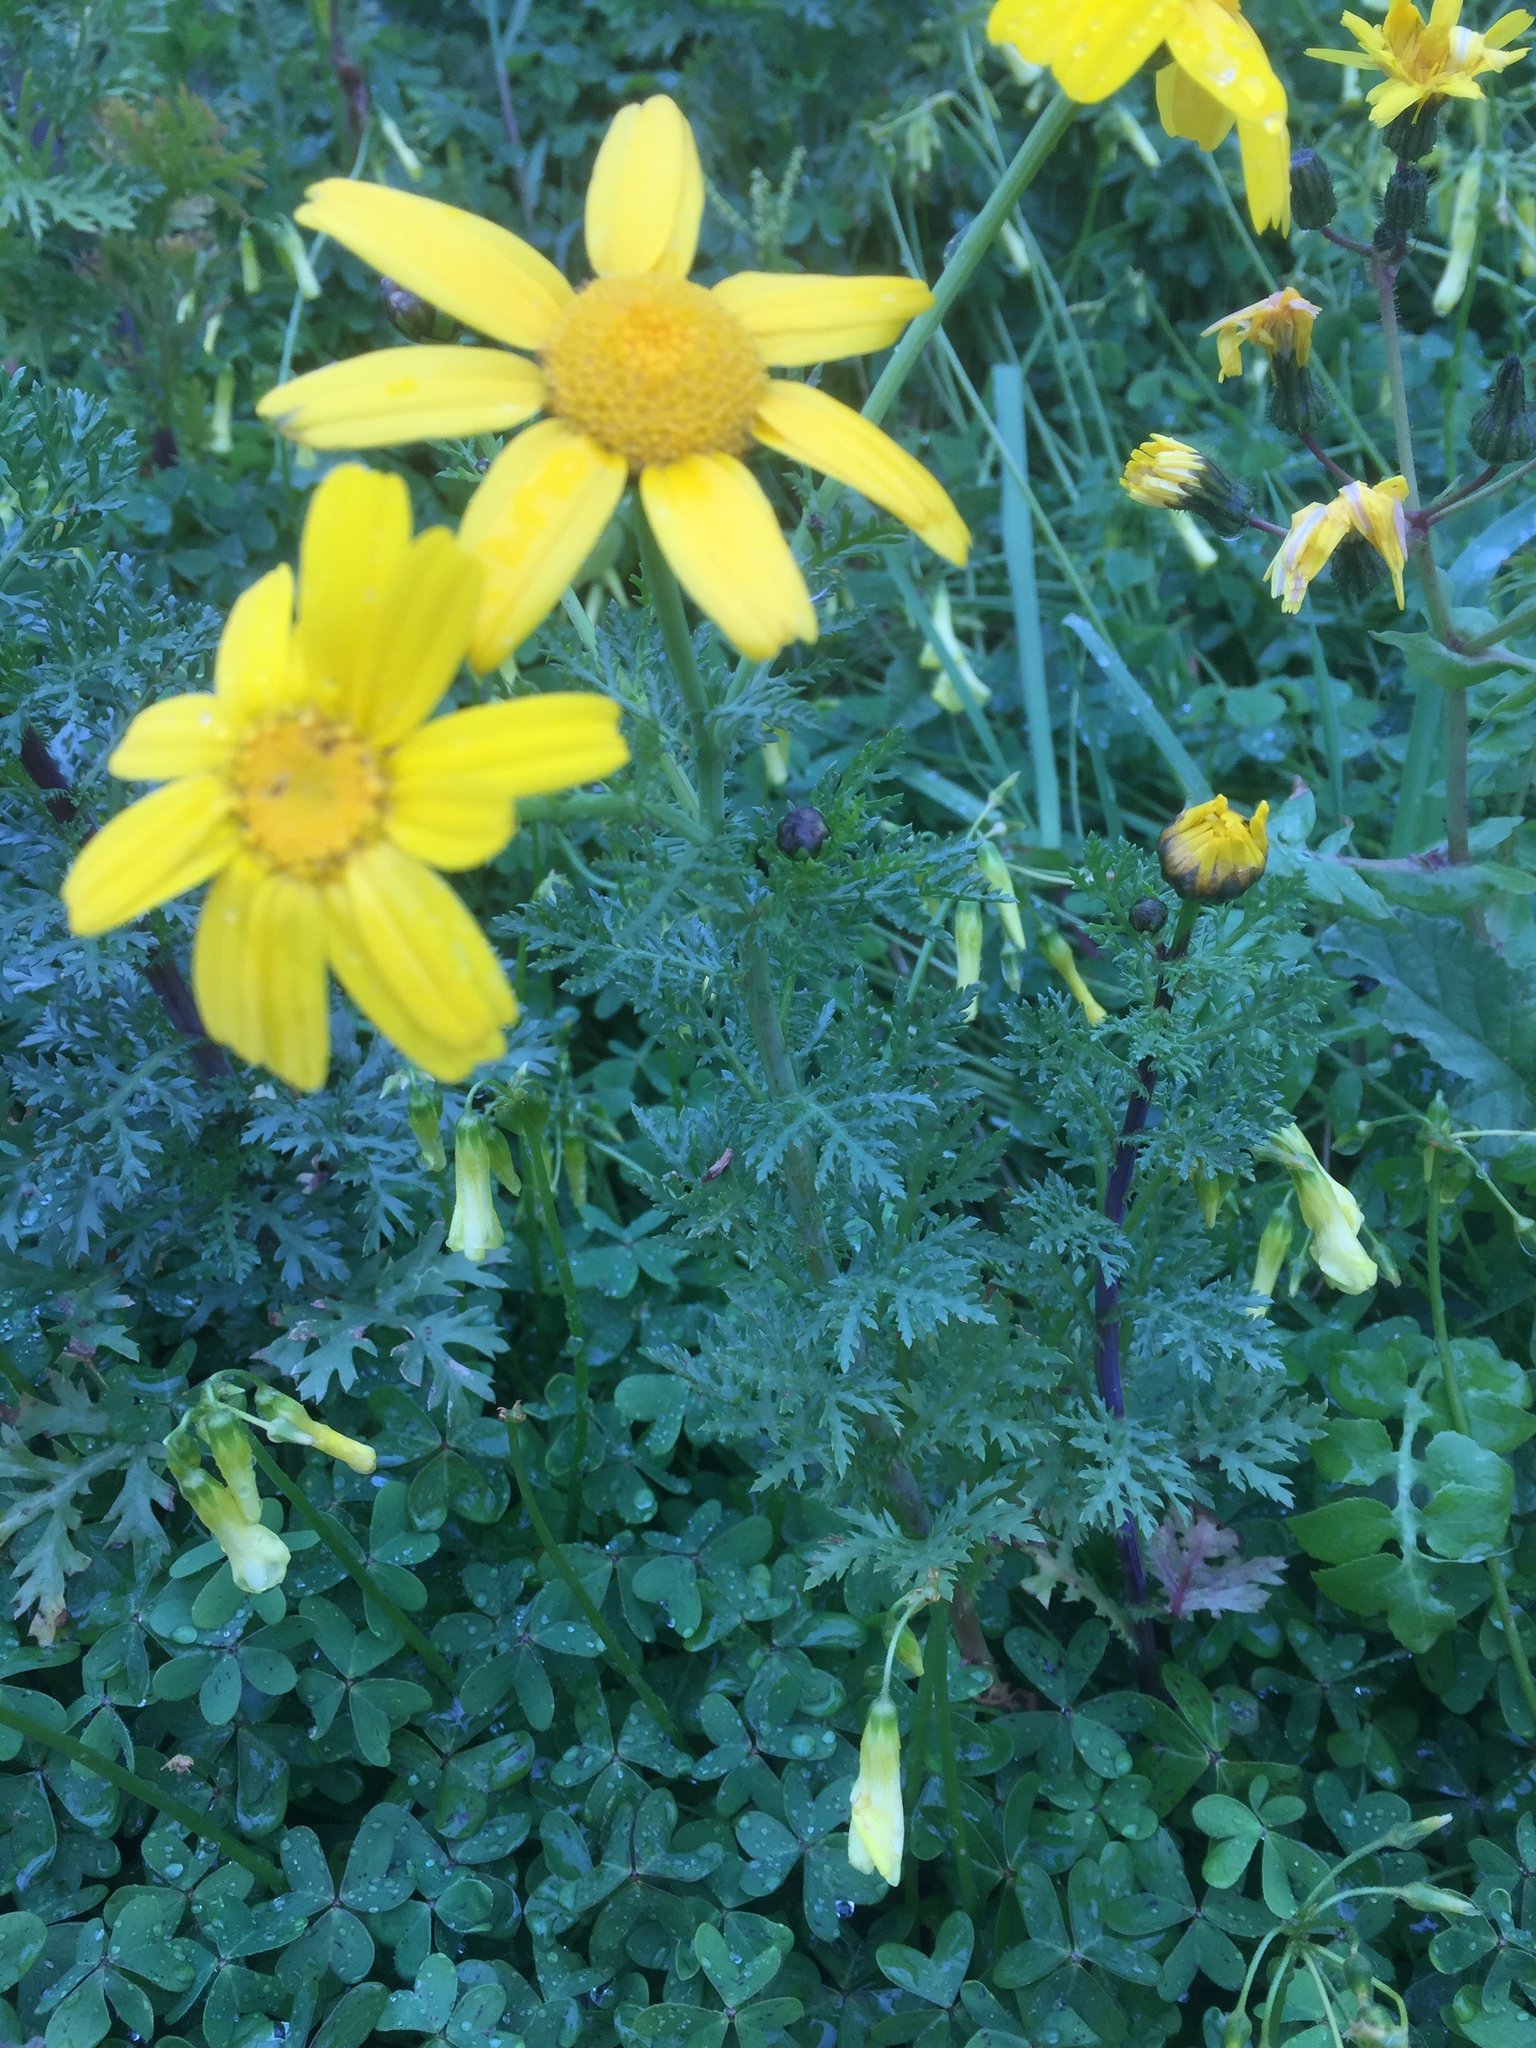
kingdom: Plantae
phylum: Tracheophyta
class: Magnoliopsida
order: Asterales
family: Asteraceae
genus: Glebionis
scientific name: Glebionis coronaria
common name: Crowndaisy
